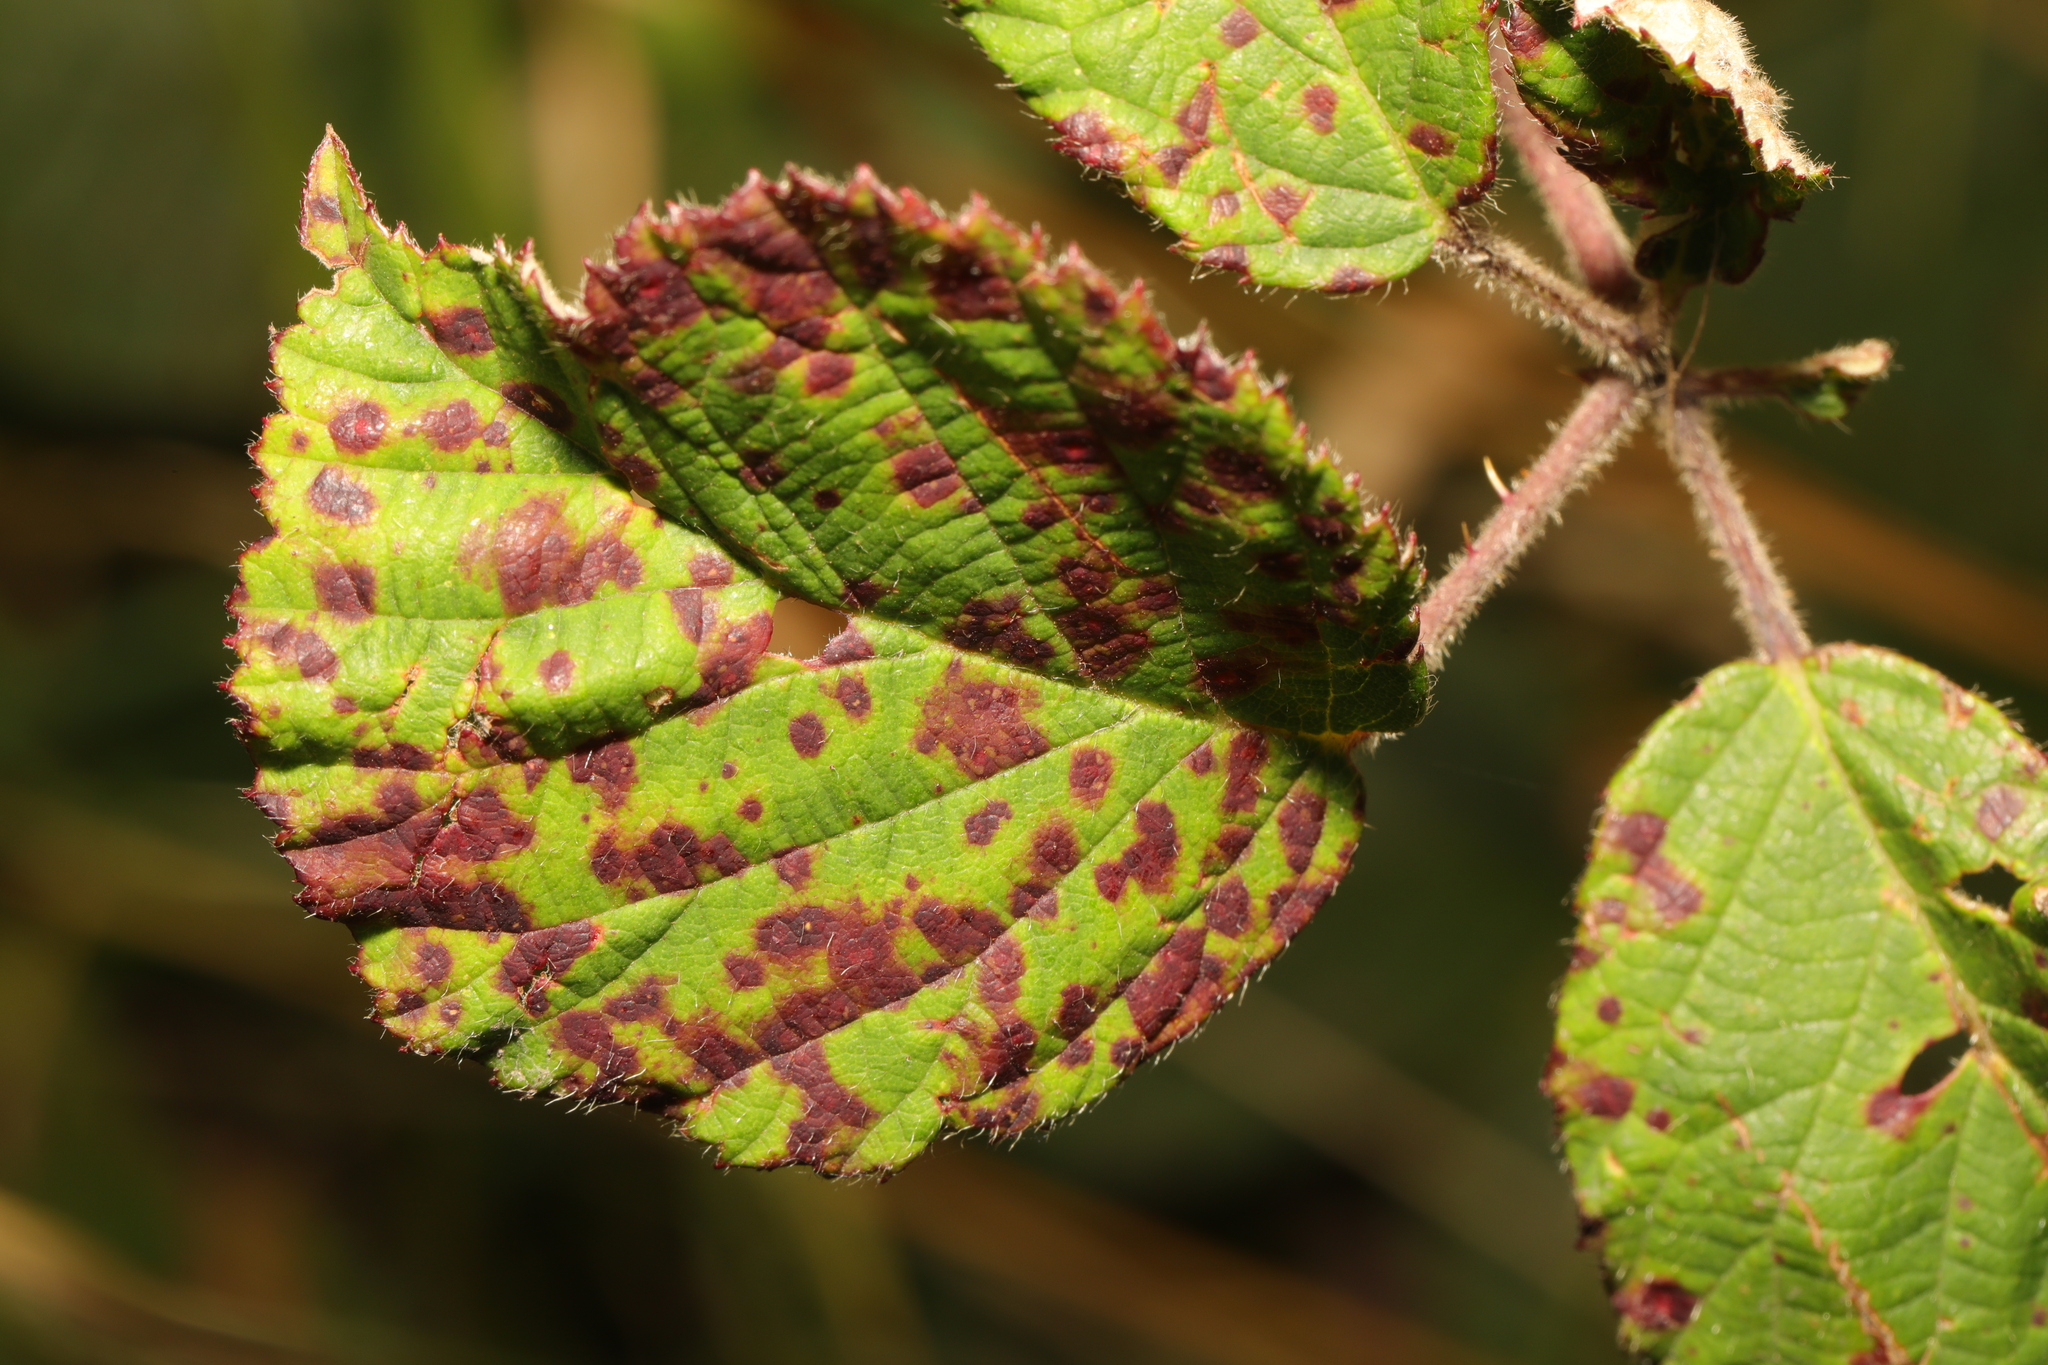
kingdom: Fungi
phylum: Basidiomycota
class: Pucciniomycetes
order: Pucciniales
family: Phragmidiaceae
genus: Phragmidium
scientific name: Phragmidium violaceum
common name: Violet bramble rust
